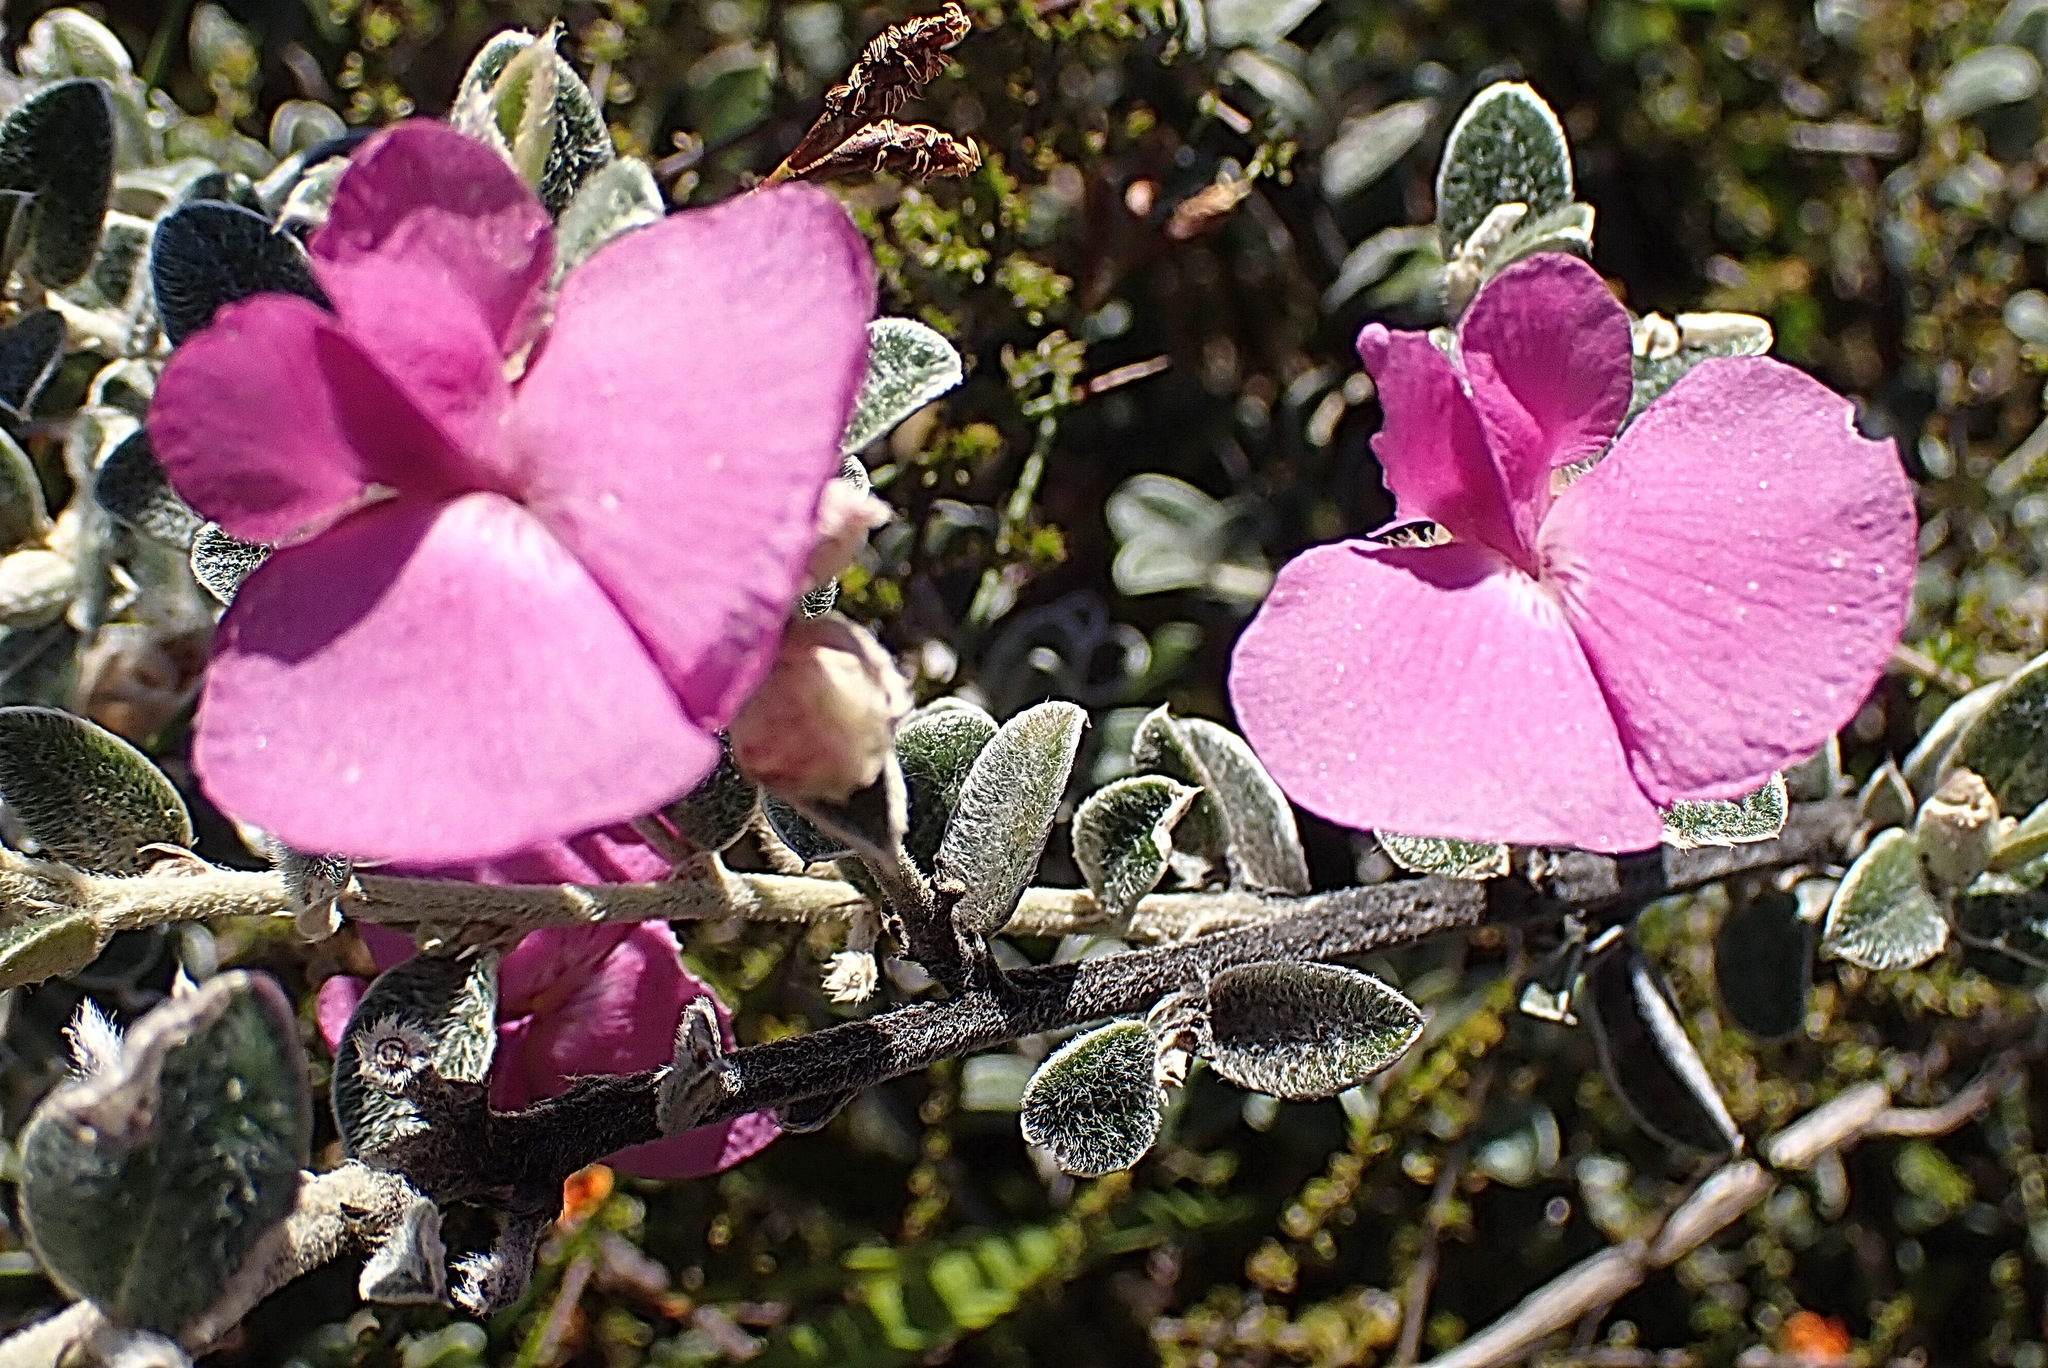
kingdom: Plantae
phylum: Tracheophyta
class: Magnoliopsida
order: Fabales
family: Fabaceae
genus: Podalyria
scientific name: Podalyria burchellii
